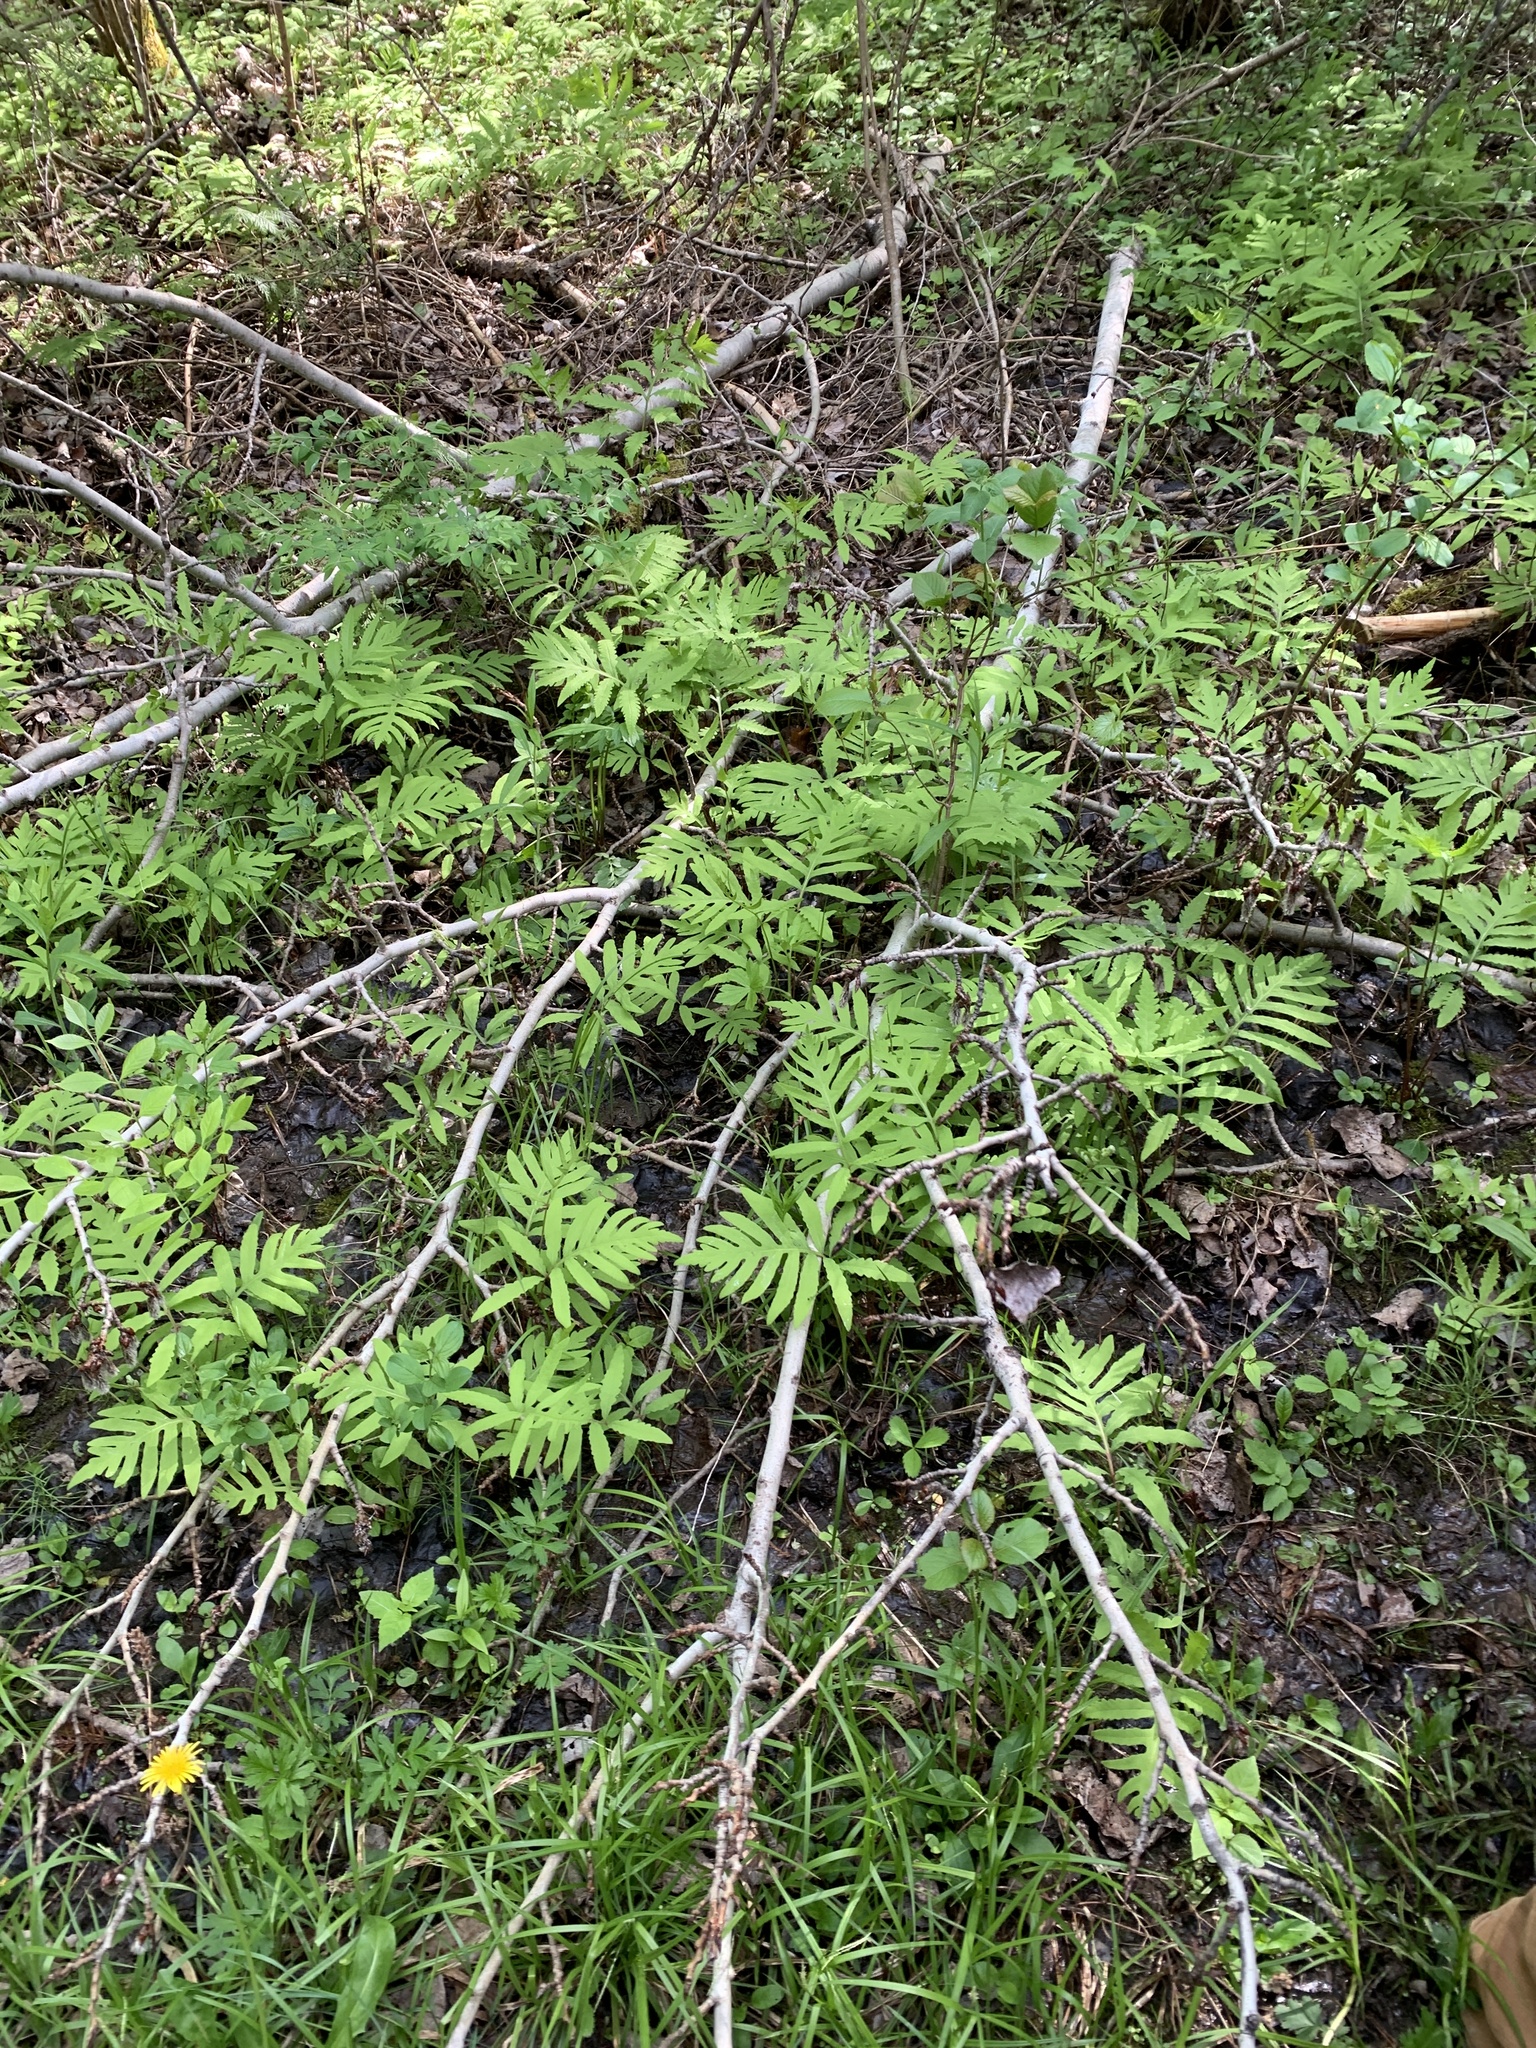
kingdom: Plantae
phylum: Tracheophyta
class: Polypodiopsida
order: Polypodiales
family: Onocleaceae
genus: Onoclea
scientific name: Onoclea sensibilis
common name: Sensitive fern
